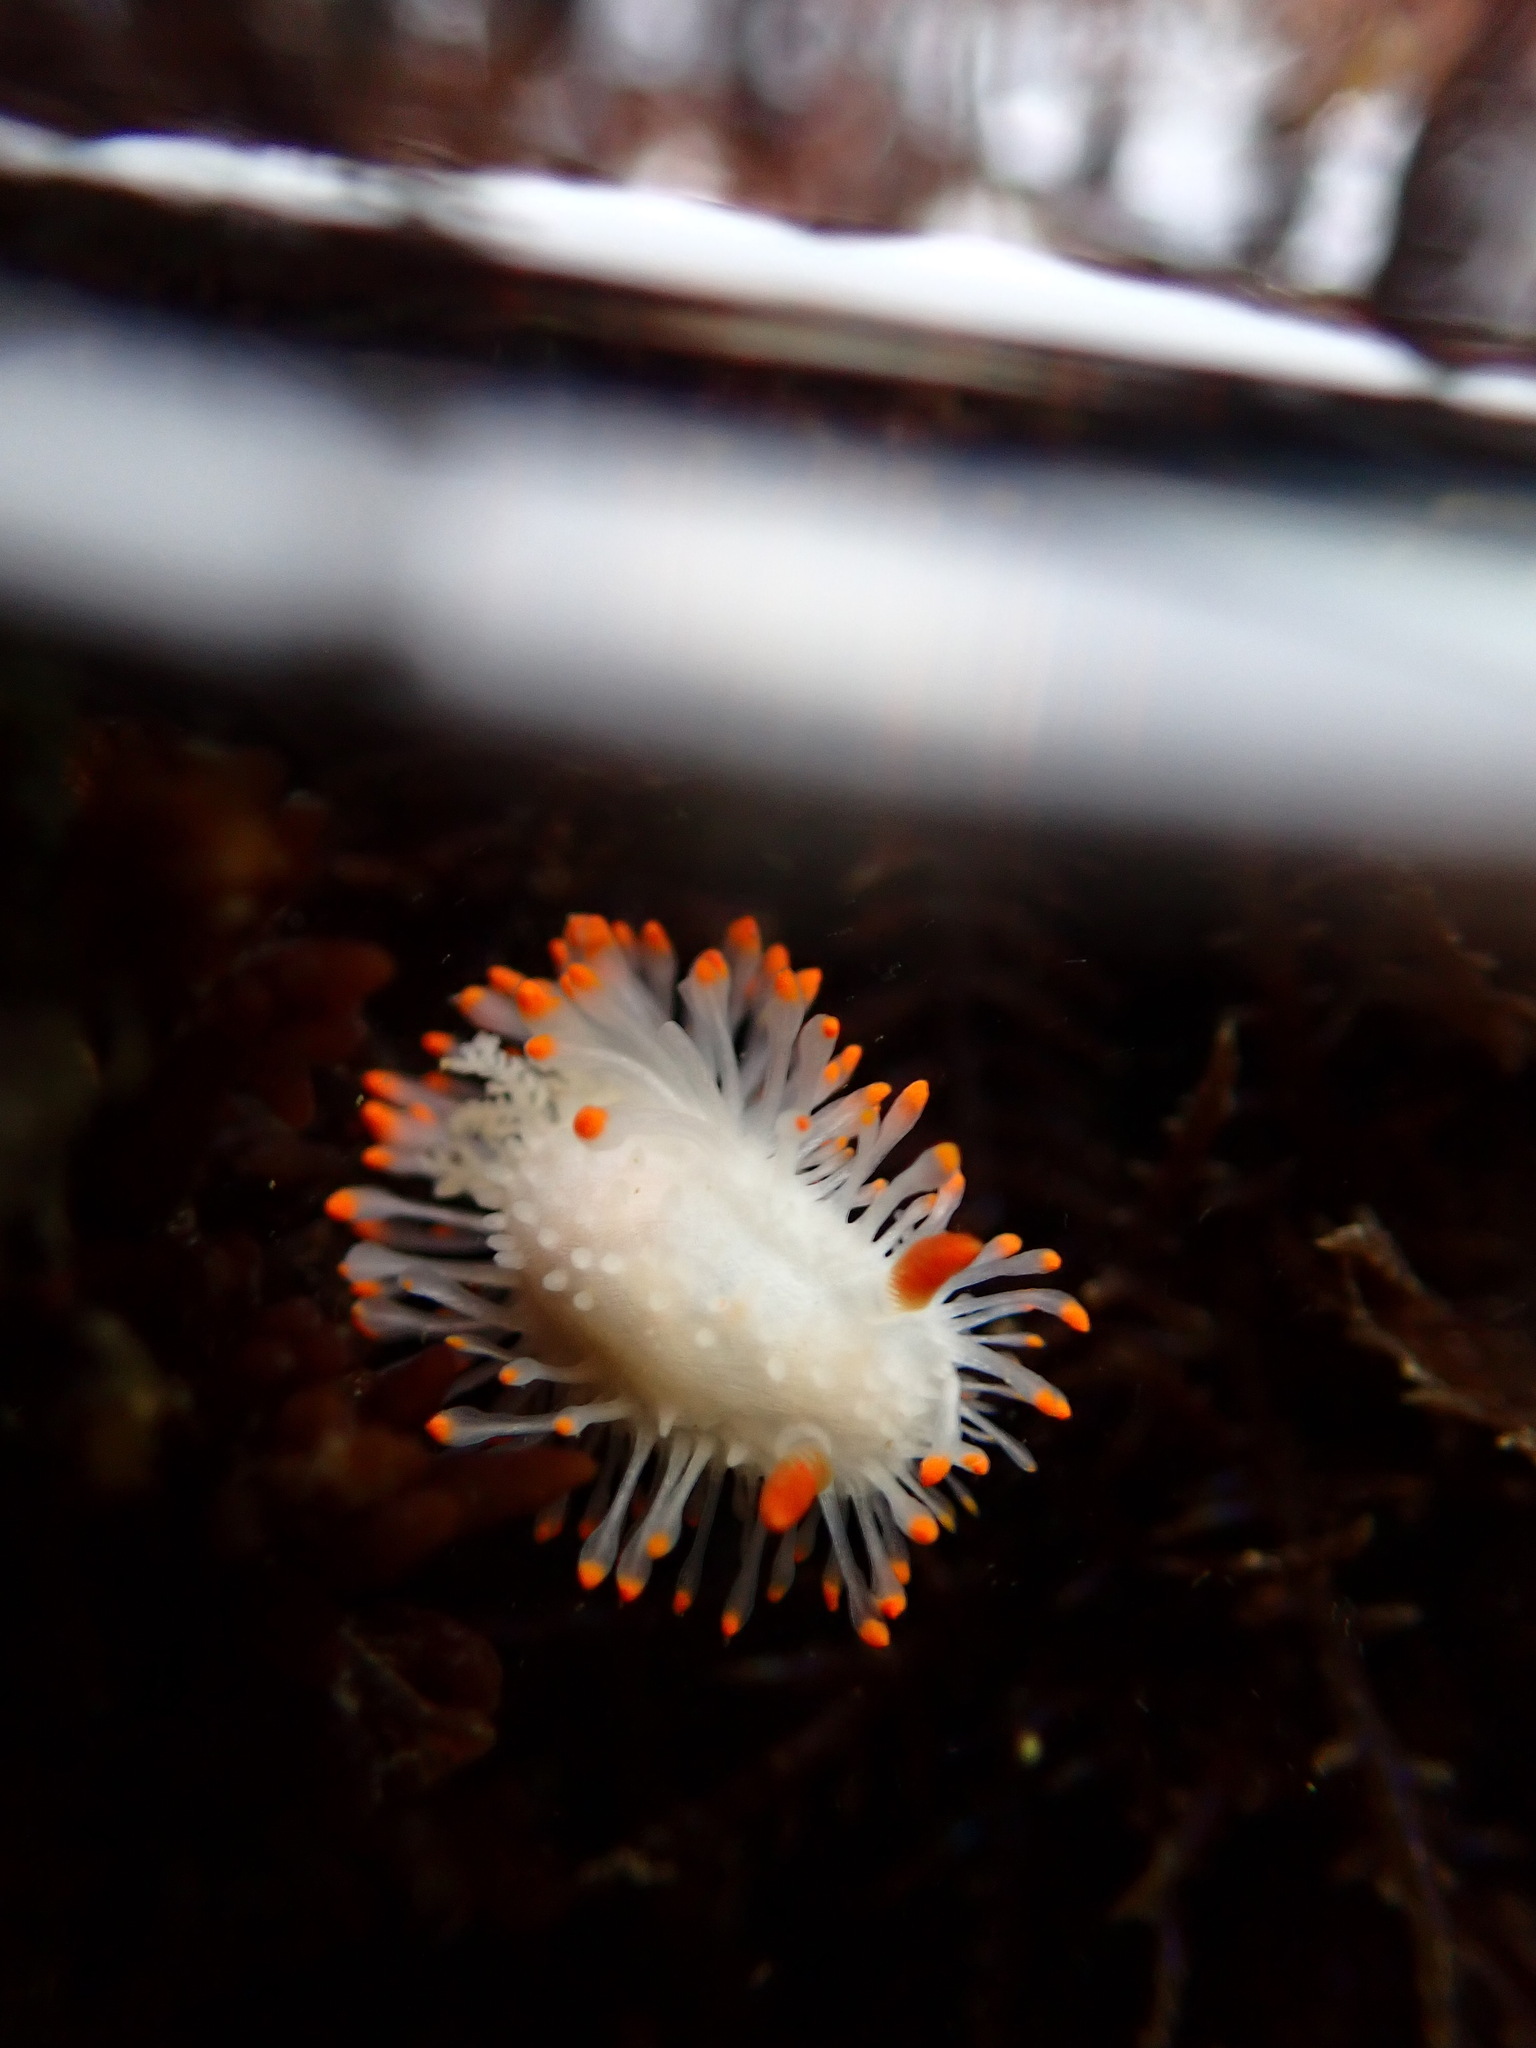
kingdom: Animalia
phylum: Mollusca
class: Gastropoda
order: Nudibranchia
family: Polyceridae
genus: Limacia
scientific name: Limacia cockerelli
